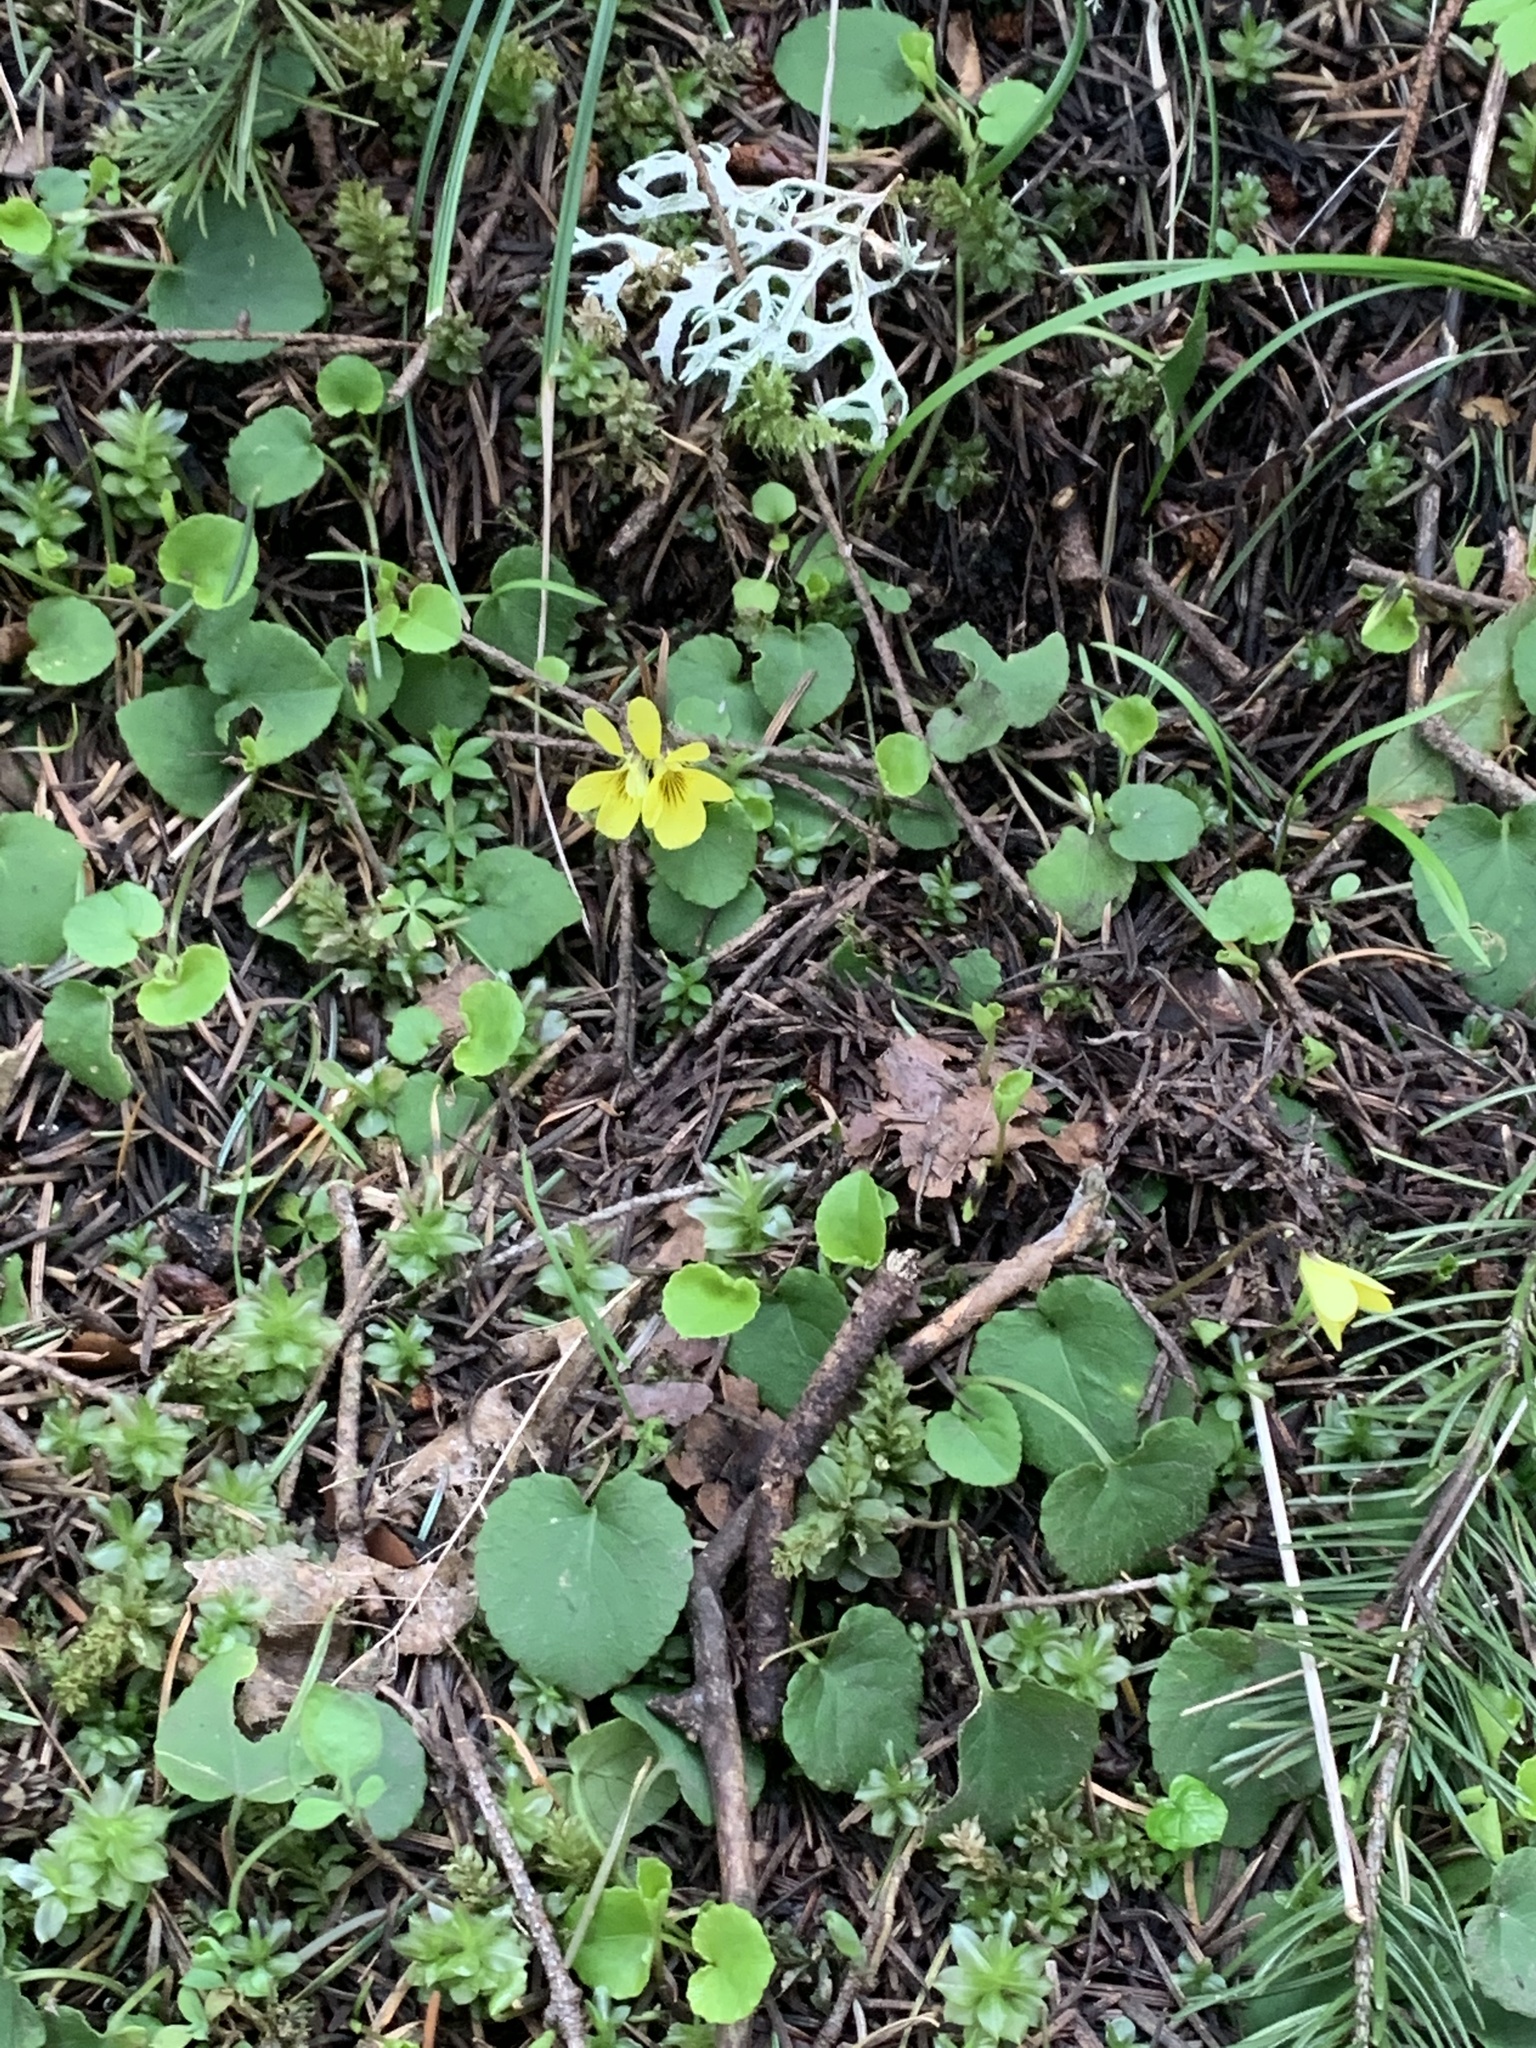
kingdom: Plantae
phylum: Tracheophyta
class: Magnoliopsida
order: Malpighiales
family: Violaceae
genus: Viola
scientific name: Viola sempervirens
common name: Evergreen violet
